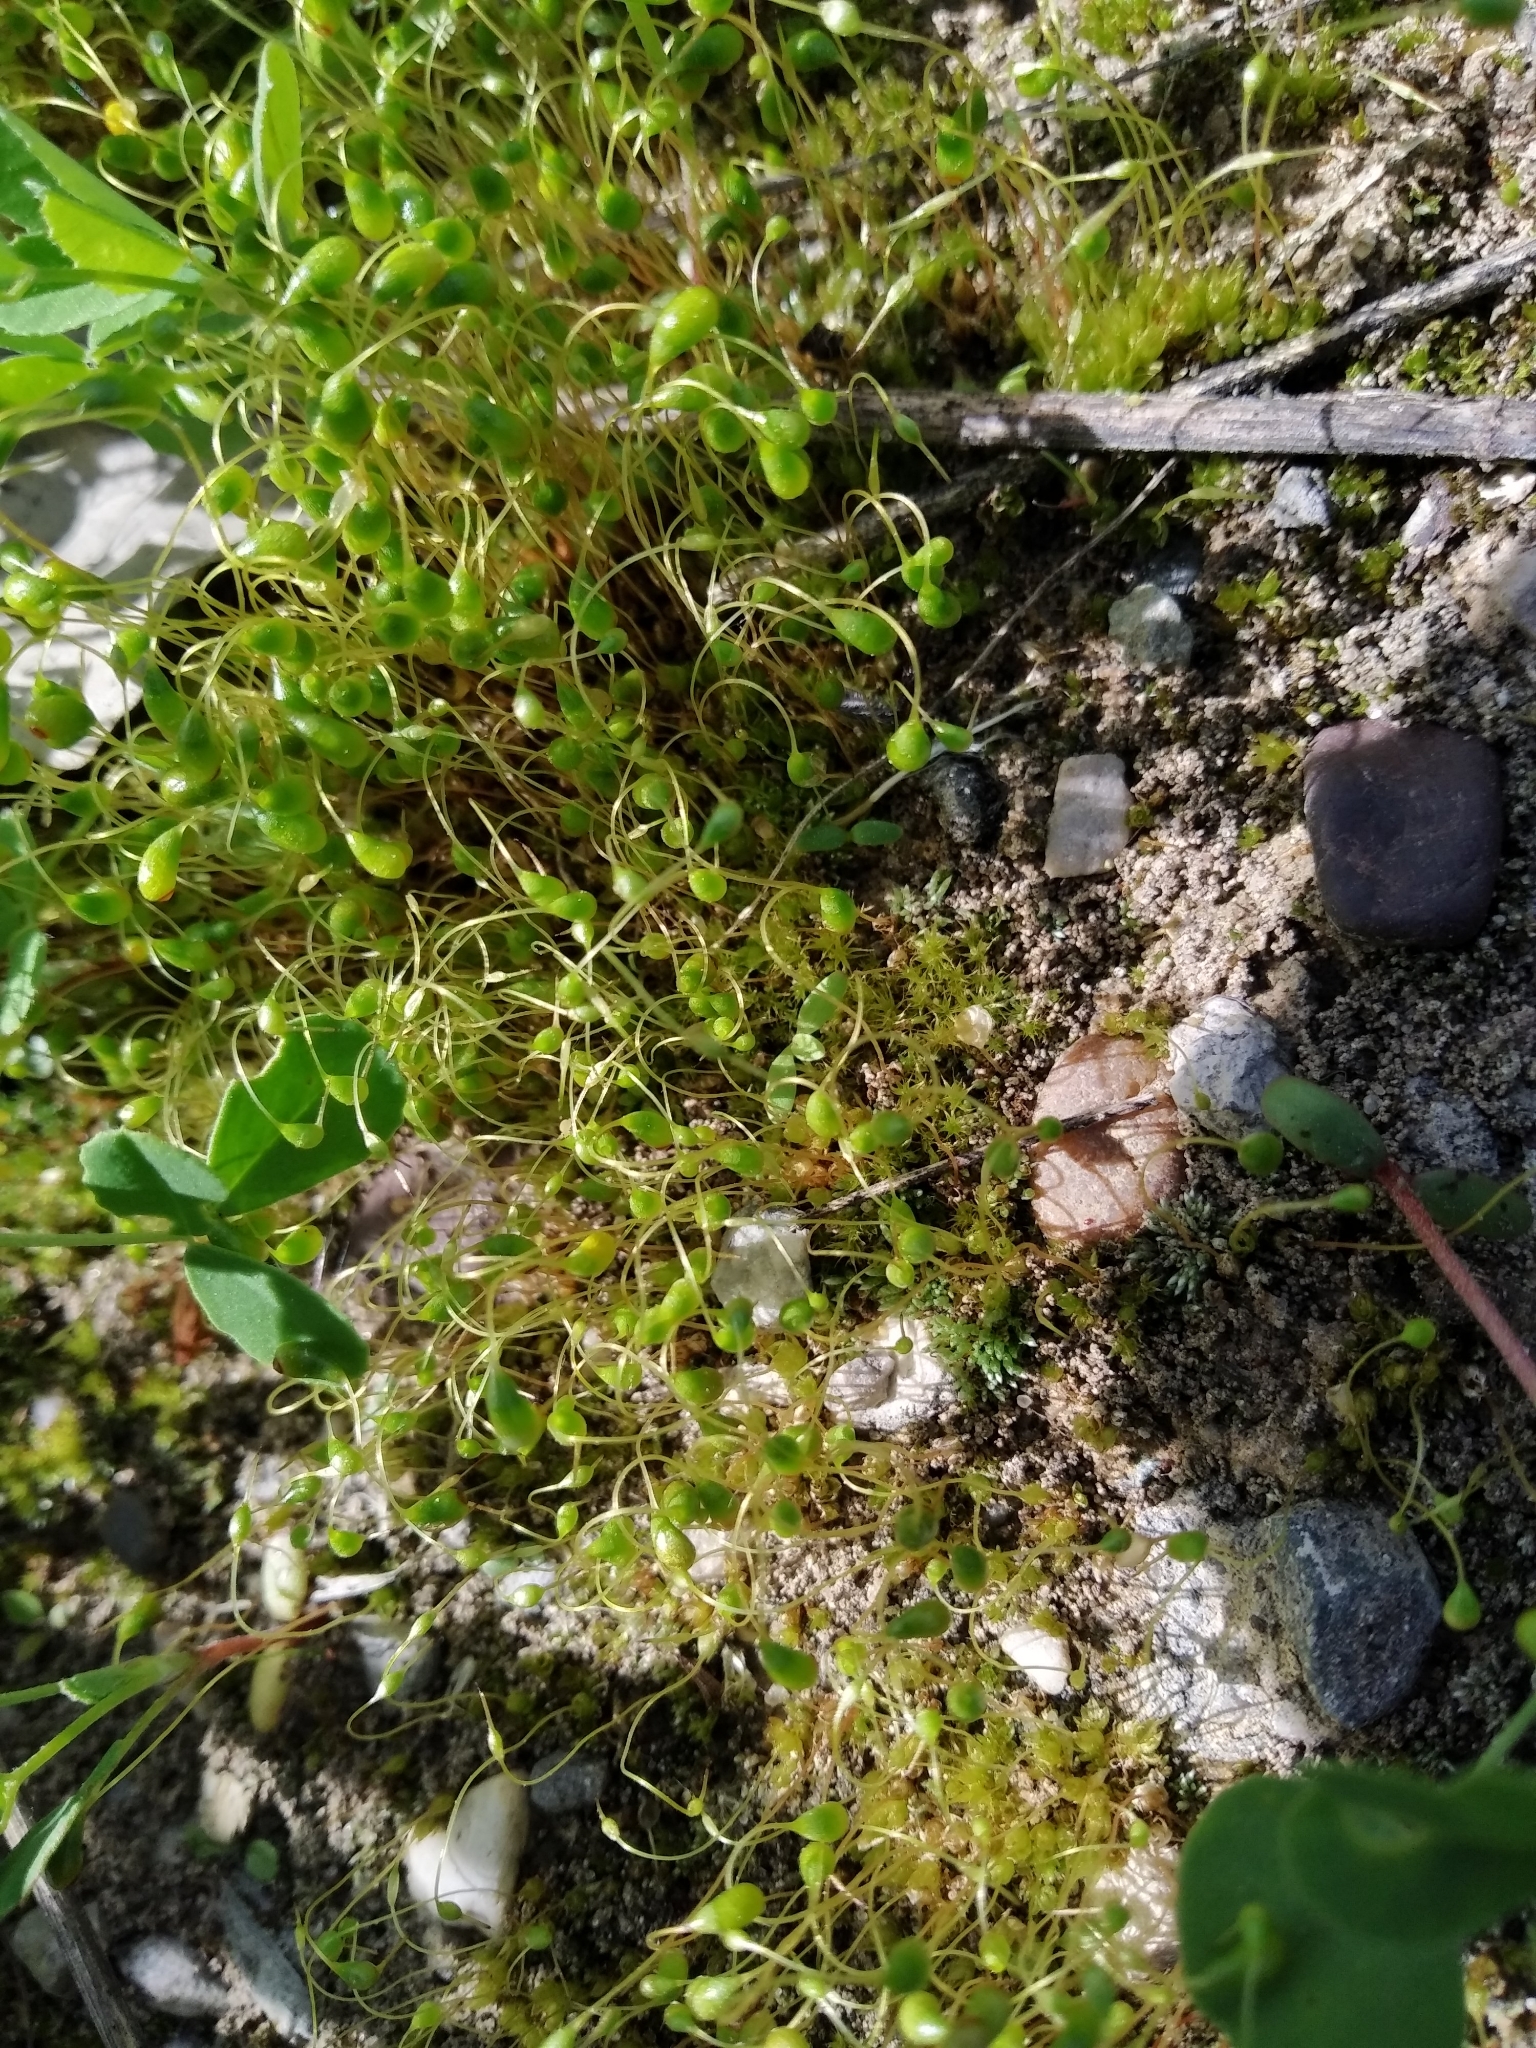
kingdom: Plantae
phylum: Bryophyta
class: Bryopsida
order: Funariales
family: Funariaceae
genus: Funaria
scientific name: Funaria hygrometrica
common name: Common cord moss
